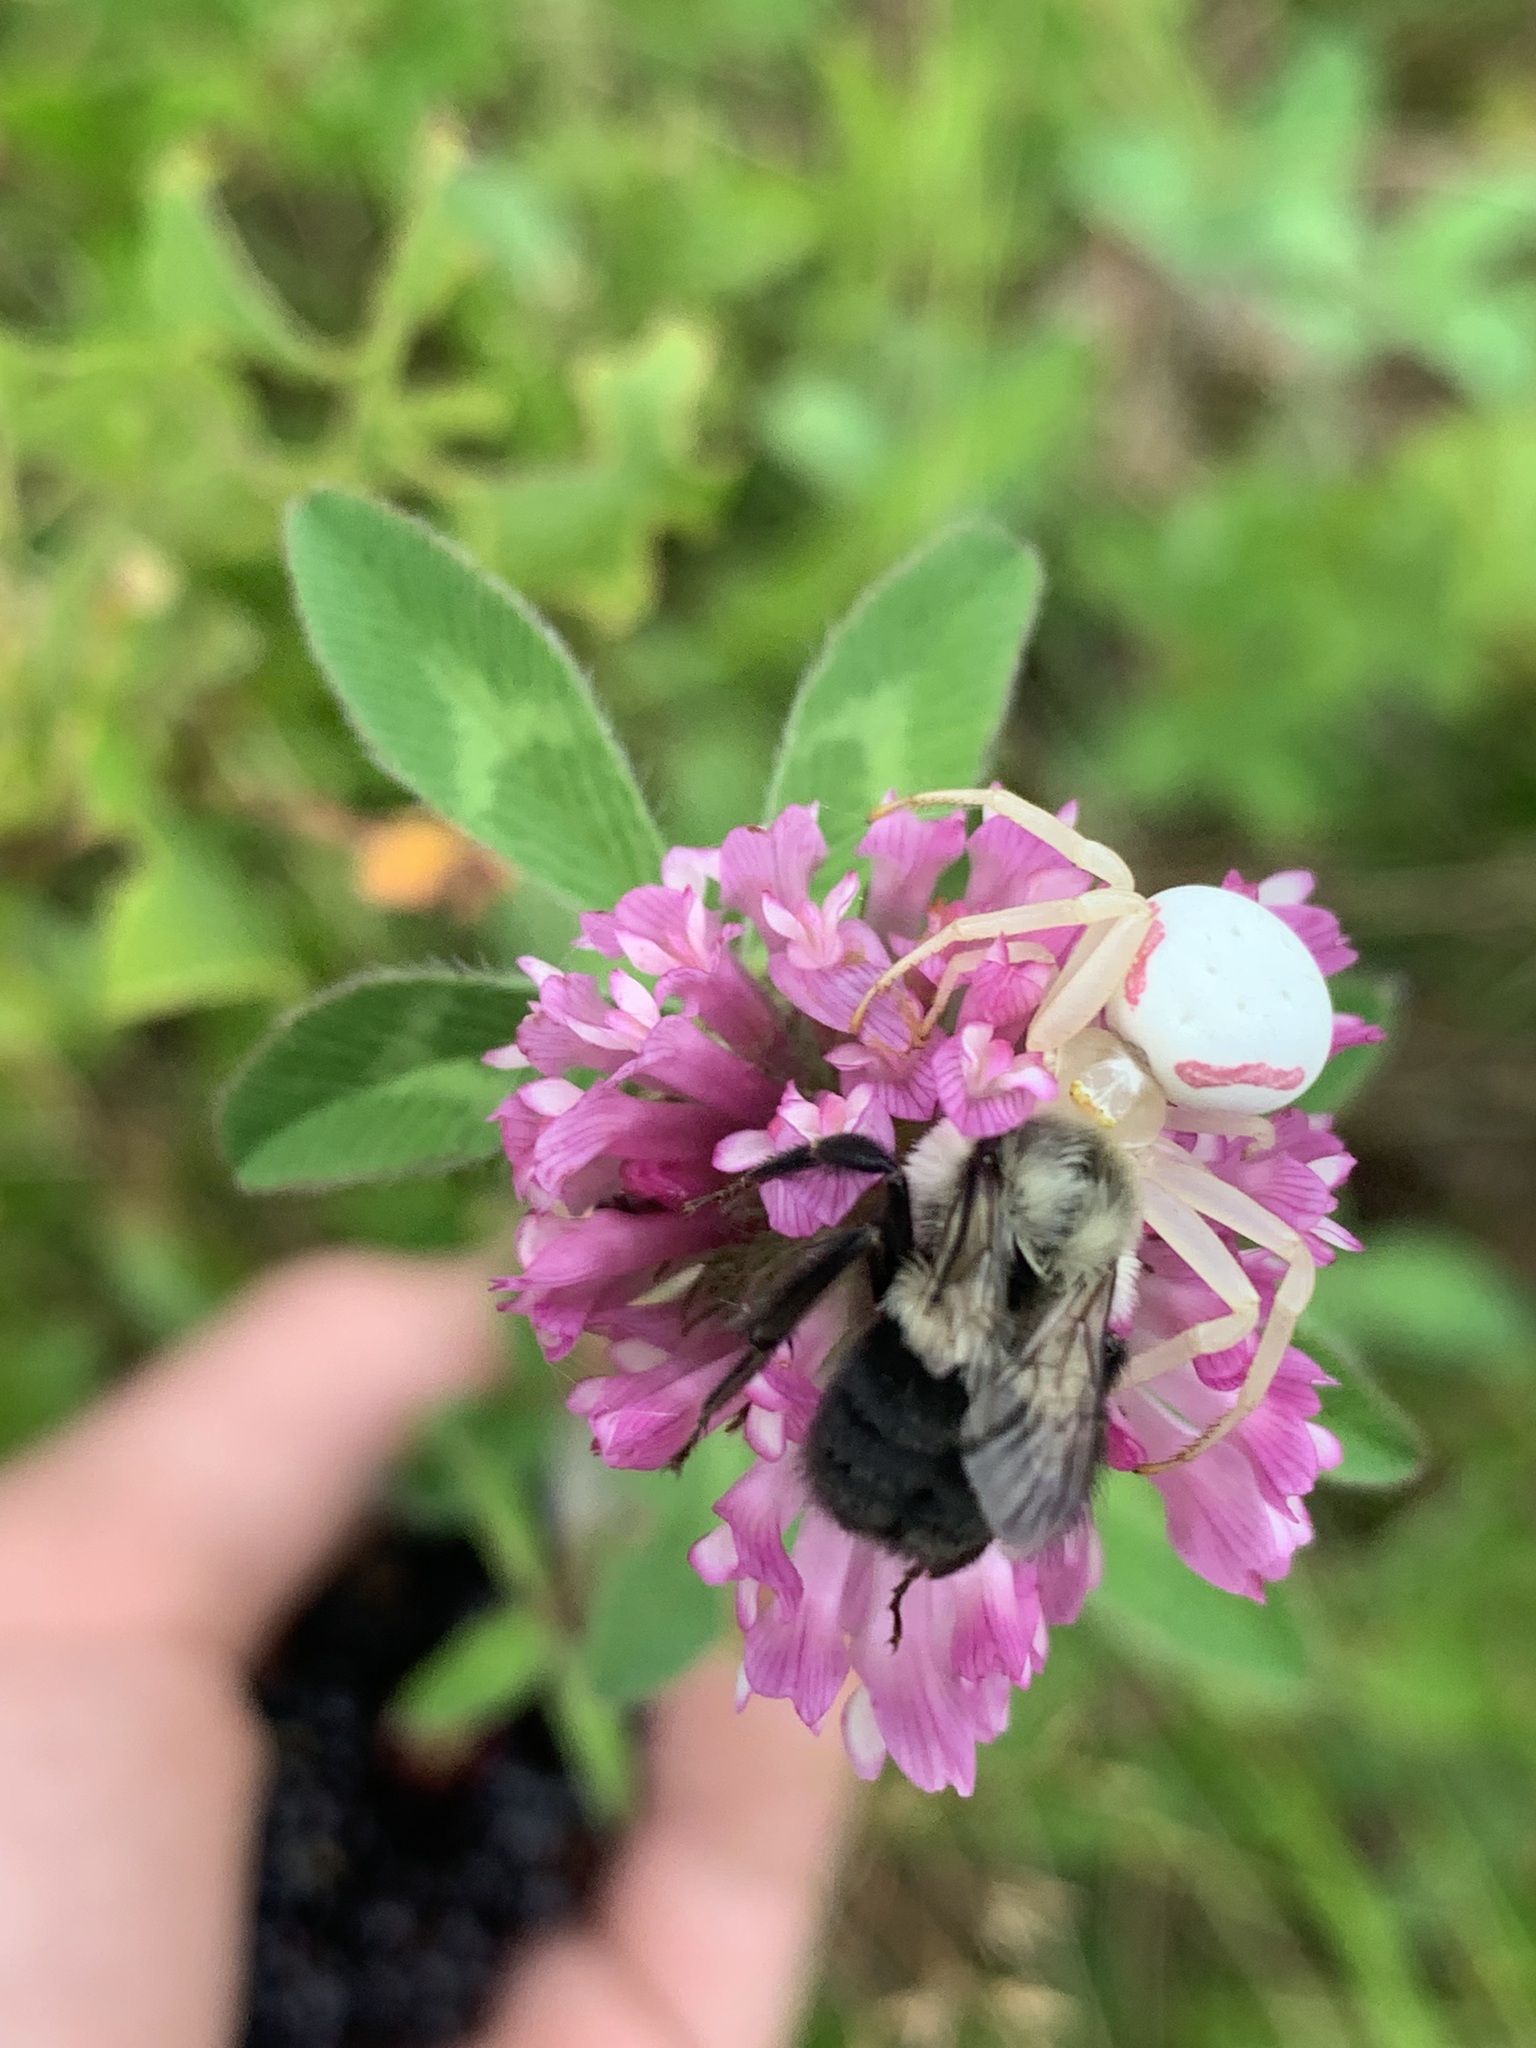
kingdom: Animalia
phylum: Arthropoda
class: Insecta
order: Hymenoptera
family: Apidae
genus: Bombus
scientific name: Bombus impatiens
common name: Common eastern bumble bee
